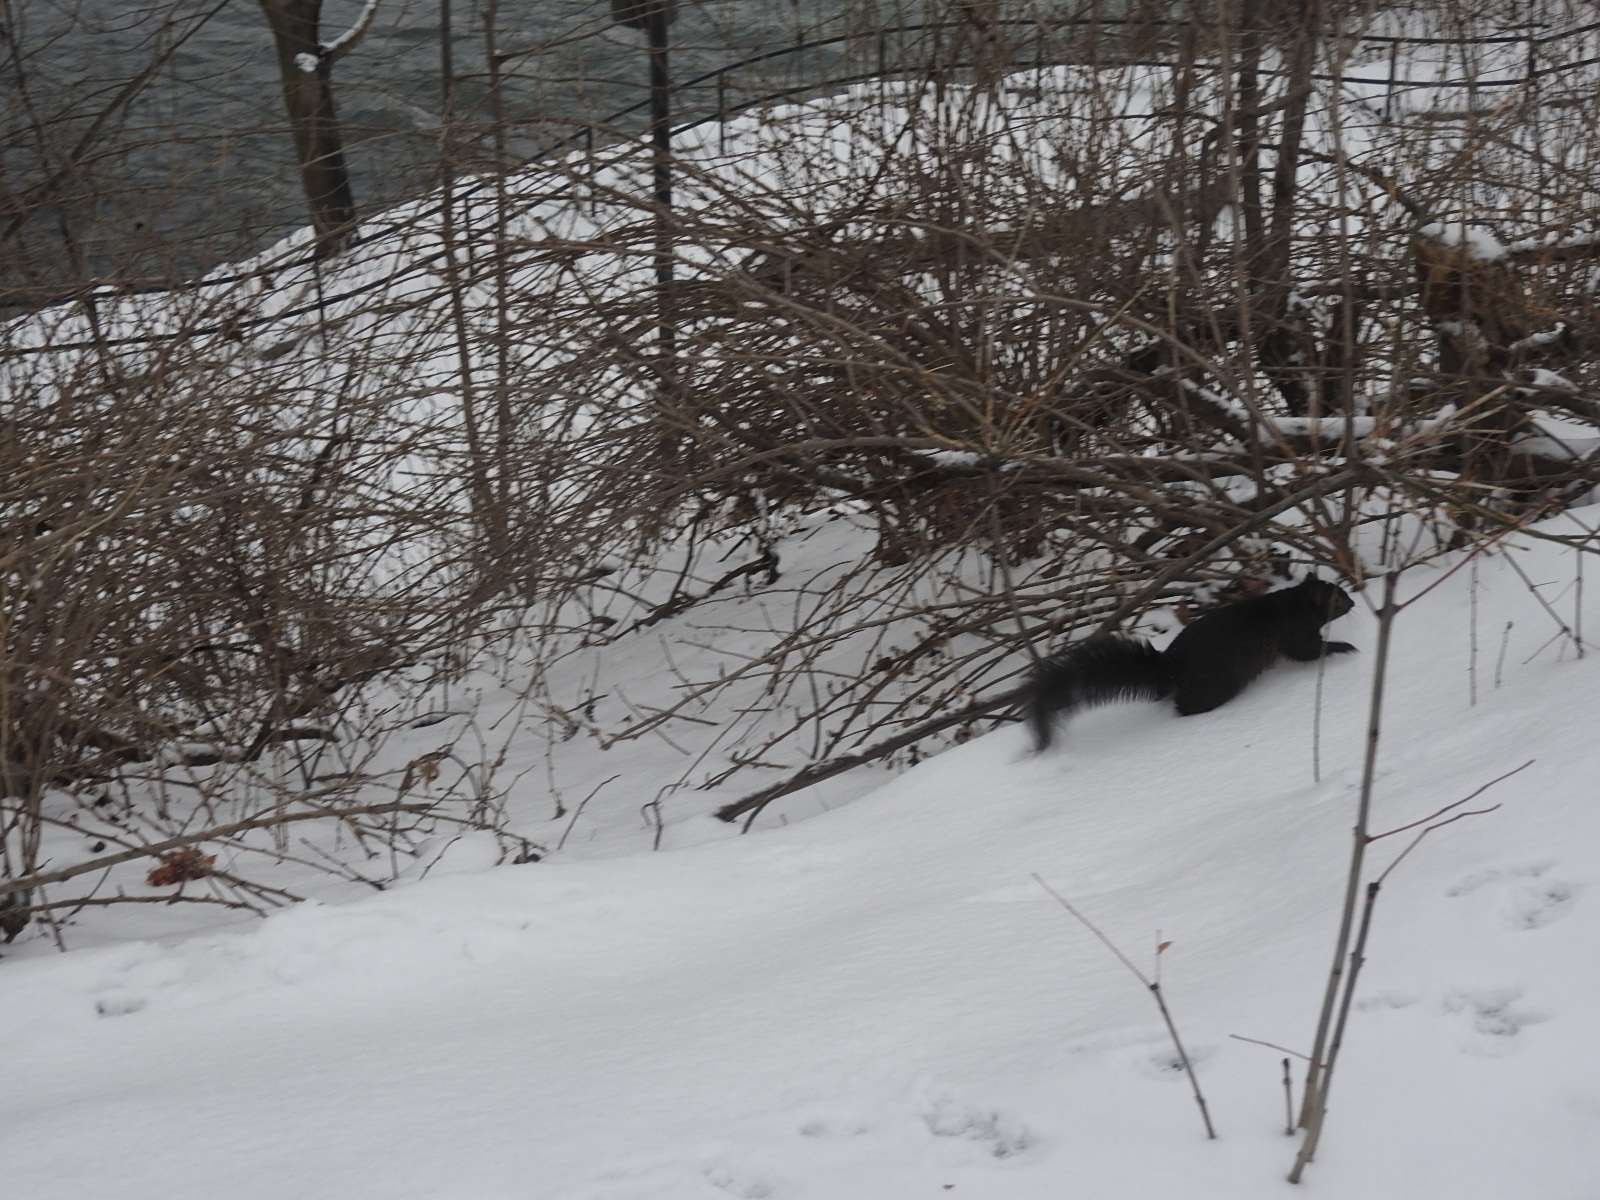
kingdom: Animalia
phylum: Chordata
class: Mammalia
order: Rodentia
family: Sciuridae
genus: Sciurus
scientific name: Sciurus carolinensis
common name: Eastern gray squirrel
